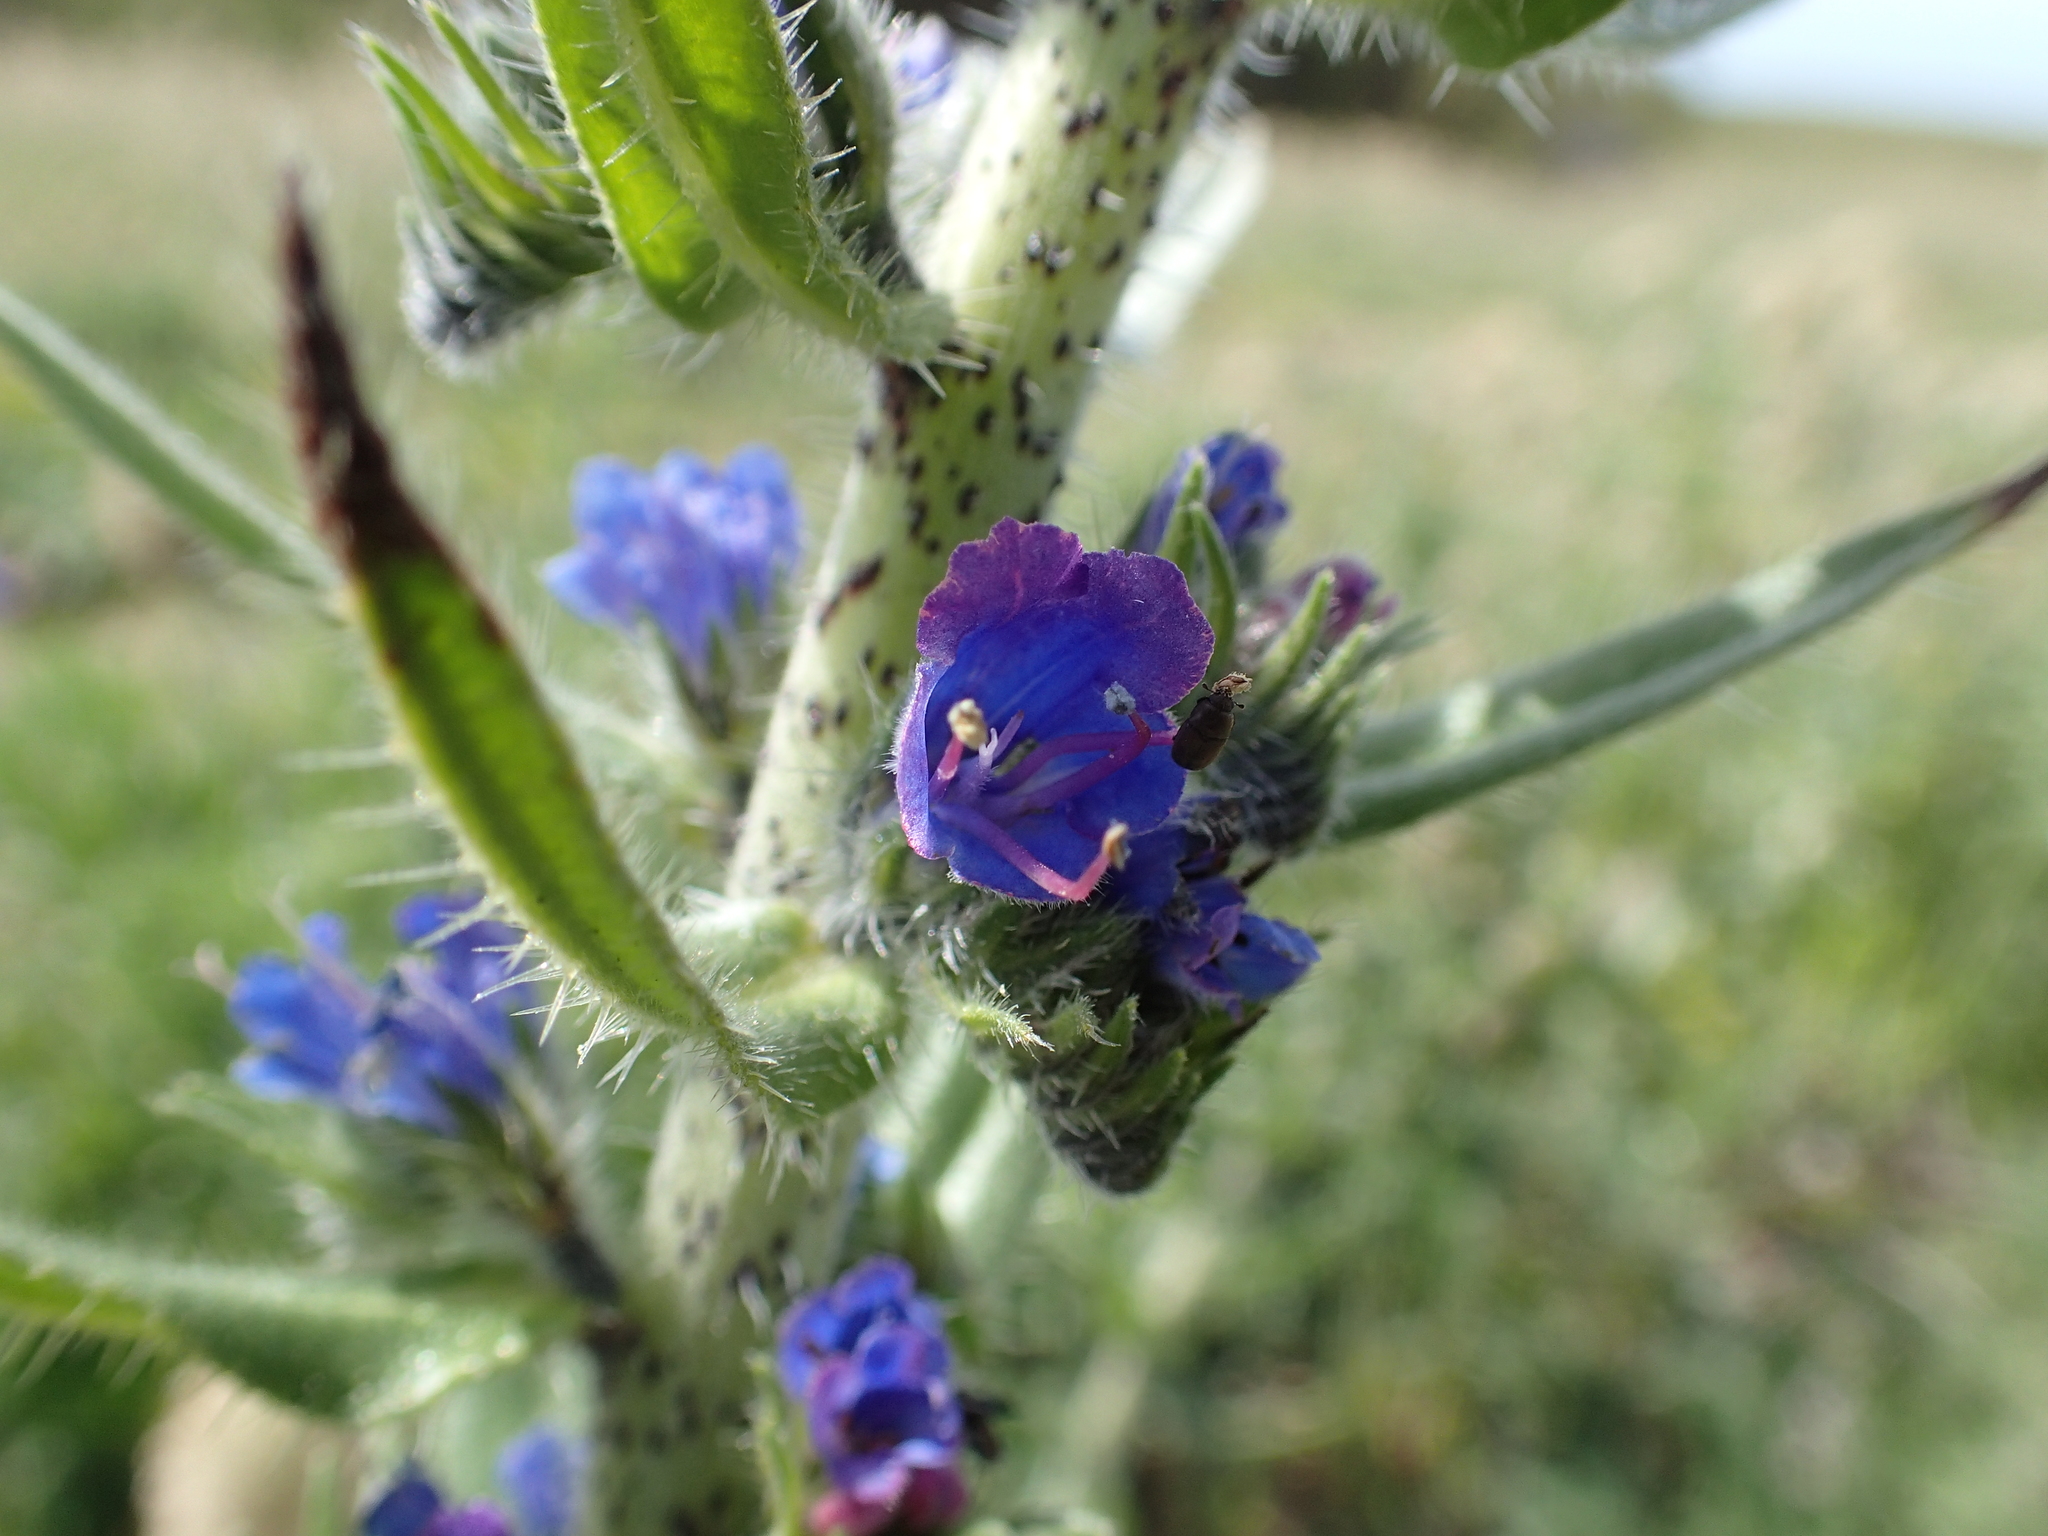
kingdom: Plantae
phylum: Tracheophyta
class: Magnoliopsida
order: Boraginales
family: Boraginaceae
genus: Echium
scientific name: Echium vulgare
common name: Common viper's bugloss
